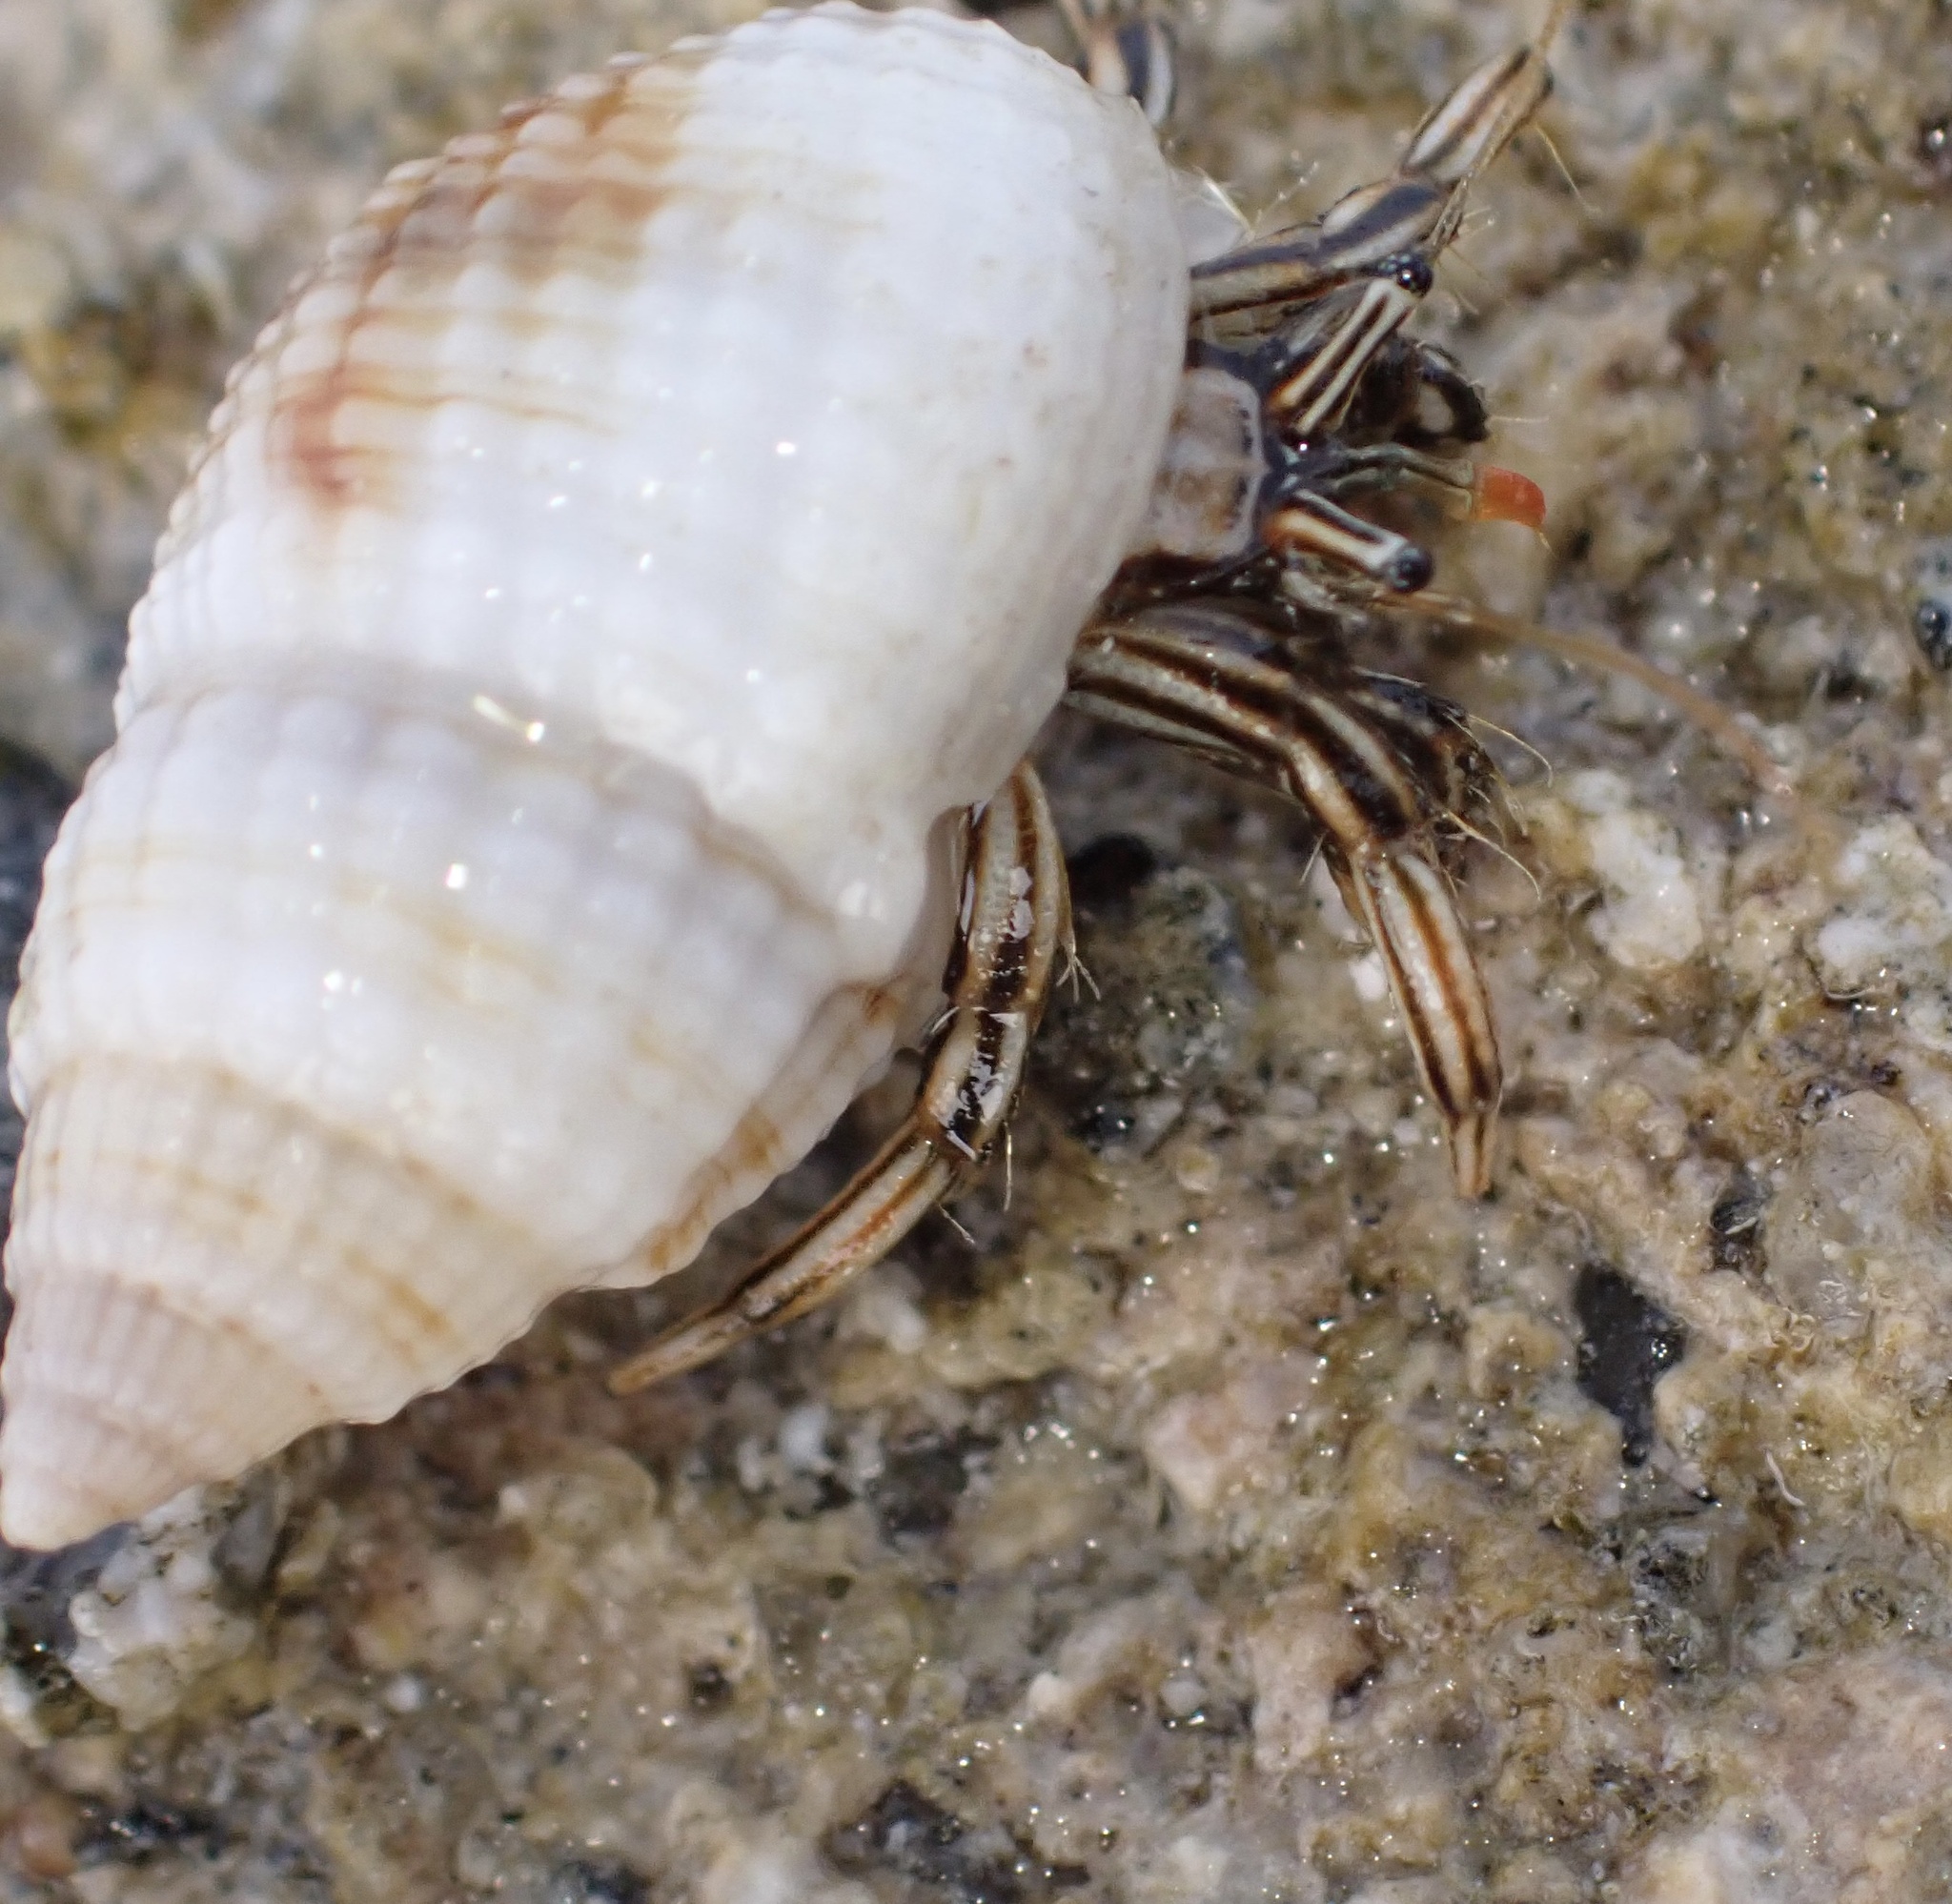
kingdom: Animalia
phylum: Arthropoda
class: Malacostraca
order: Decapoda
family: Diogenidae
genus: Clibanarius
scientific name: Clibanarius signatus
